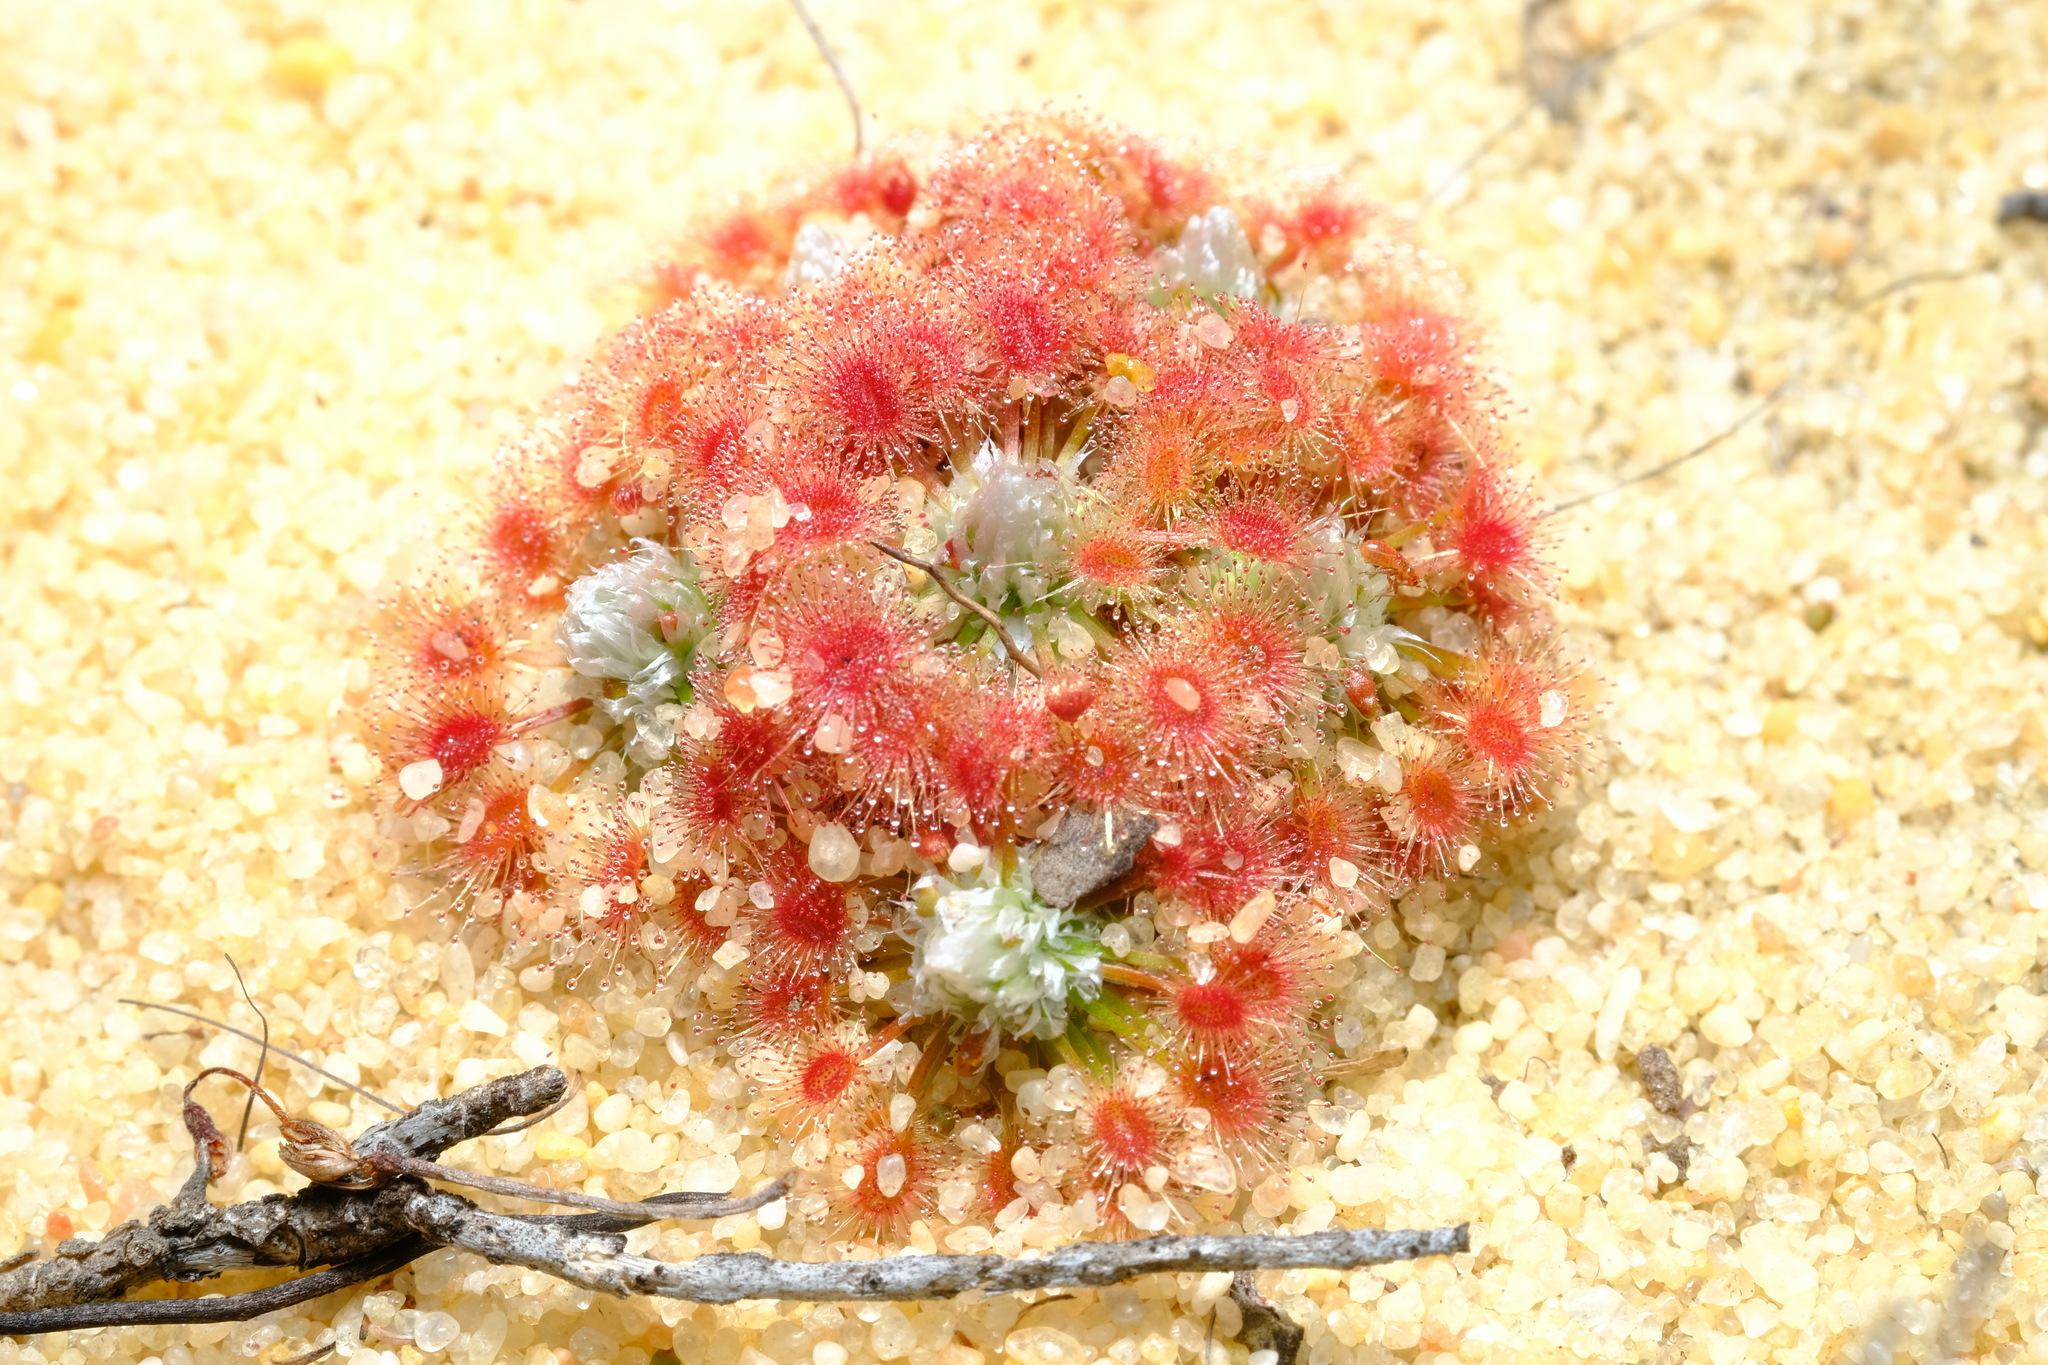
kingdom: Plantae
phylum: Tracheophyta
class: Magnoliopsida
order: Caryophyllales
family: Droseraceae
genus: Drosera
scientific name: Drosera rechingeri
